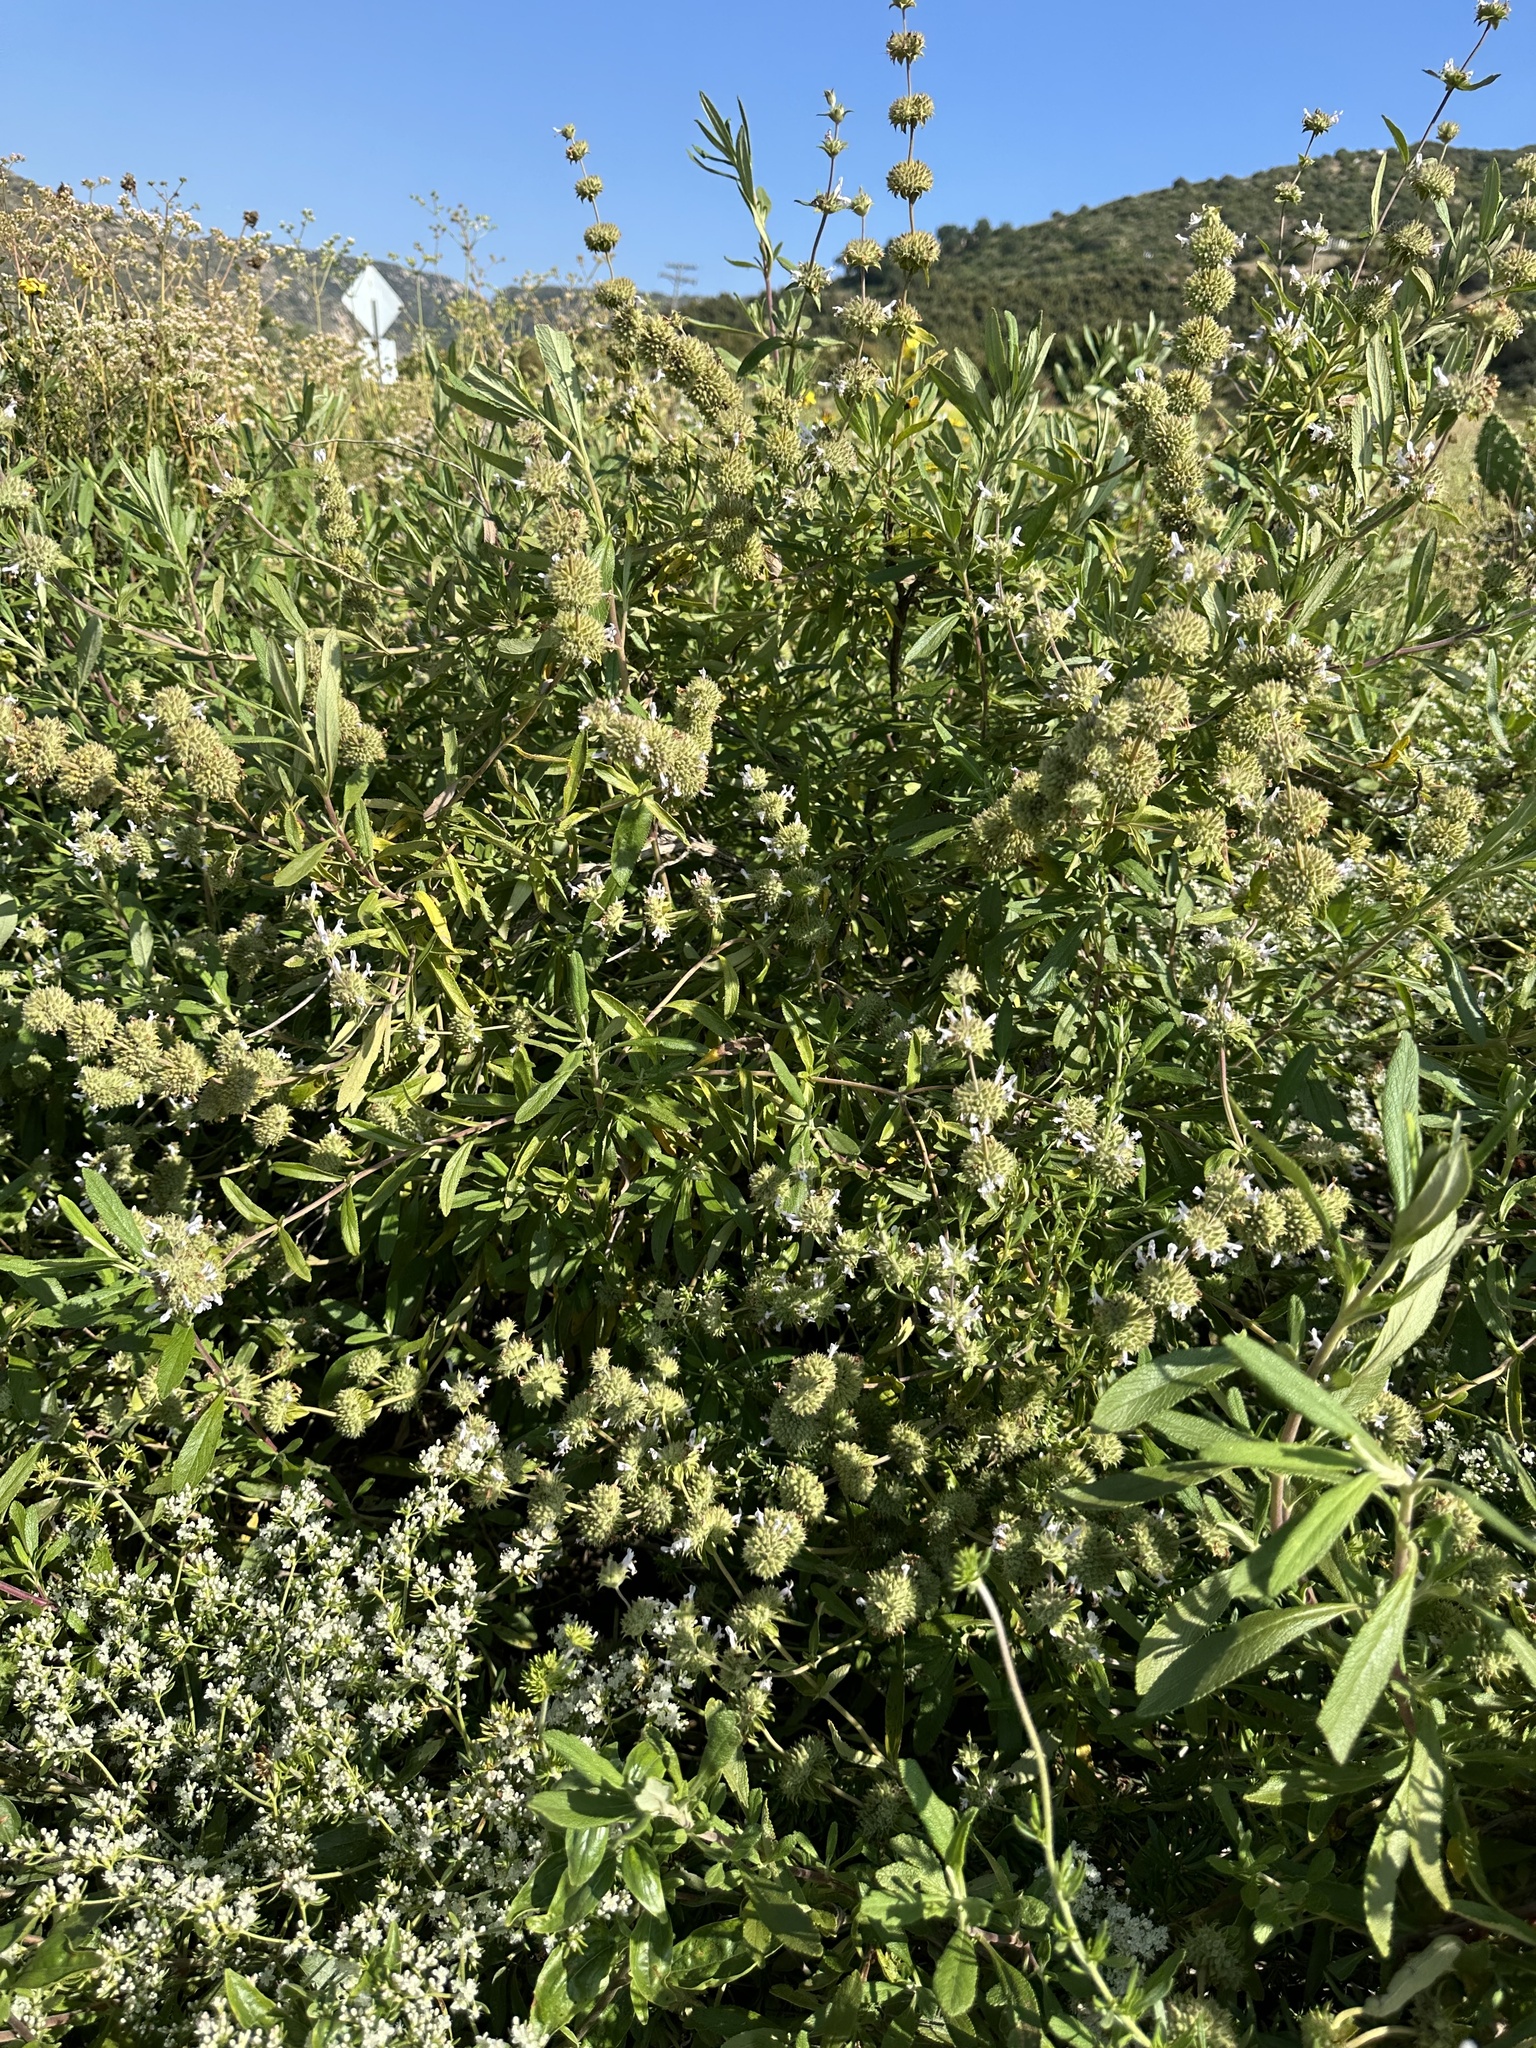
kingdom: Plantae
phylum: Tracheophyta
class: Magnoliopsida
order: Lamiales
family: Lamiaceae
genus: Salvia
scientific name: Salvia mellifera
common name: Black sage
